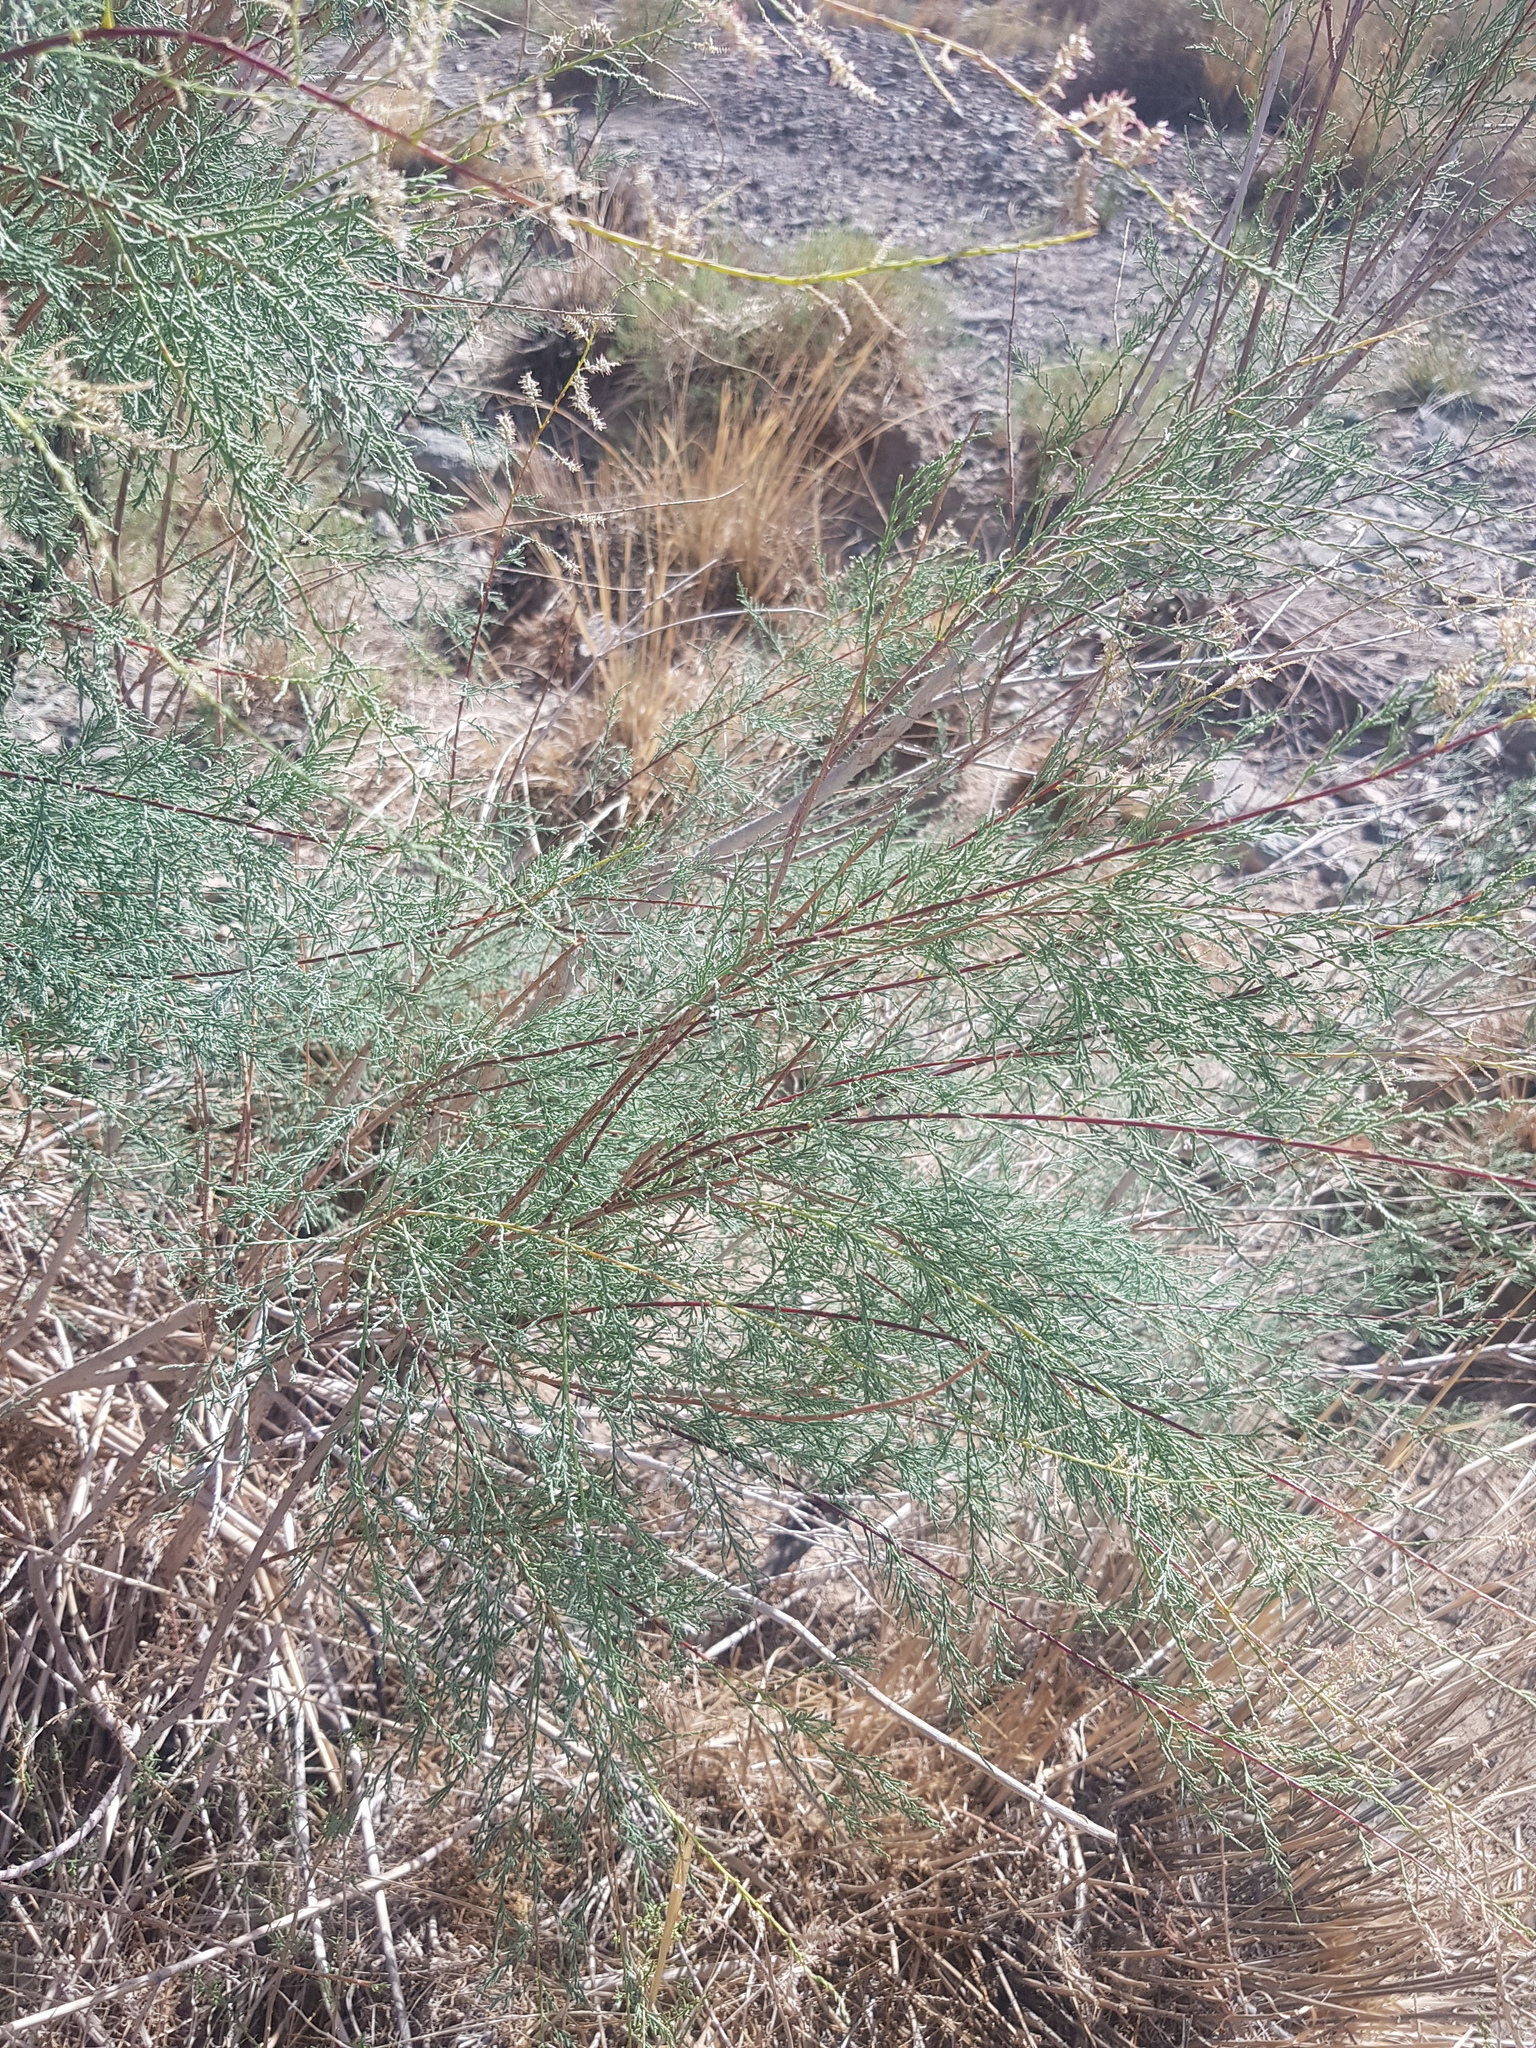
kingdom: Plantae
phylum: Tracheophyta
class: Magnoliopsida
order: Caryophyllales
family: Tamaricaceae
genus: Tamarix
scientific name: Tamarix gracilis
